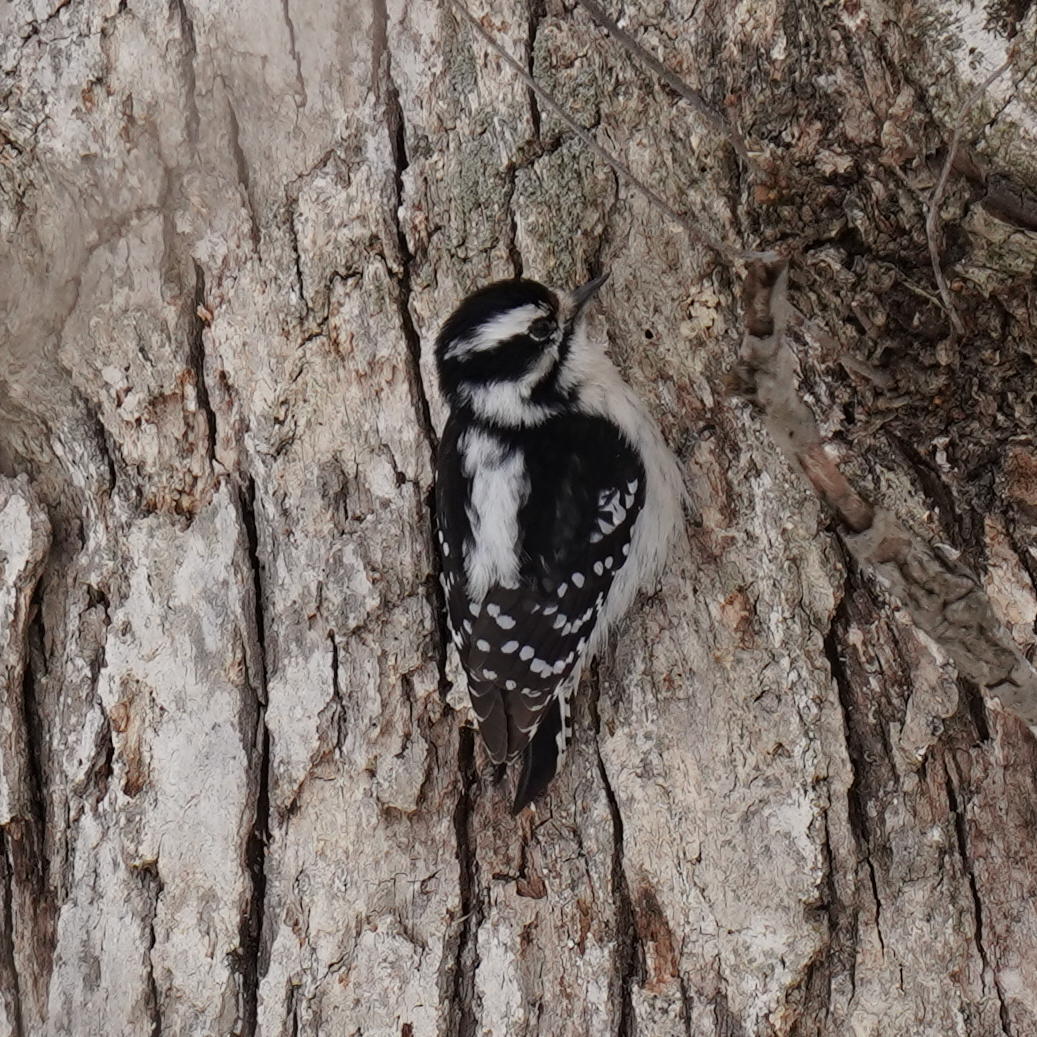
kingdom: Animalia
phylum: Chordata
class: Aves
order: Piciformes
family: Picidae
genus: Dryobates
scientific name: Dryobates pubescens
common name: Downy woodpecker
